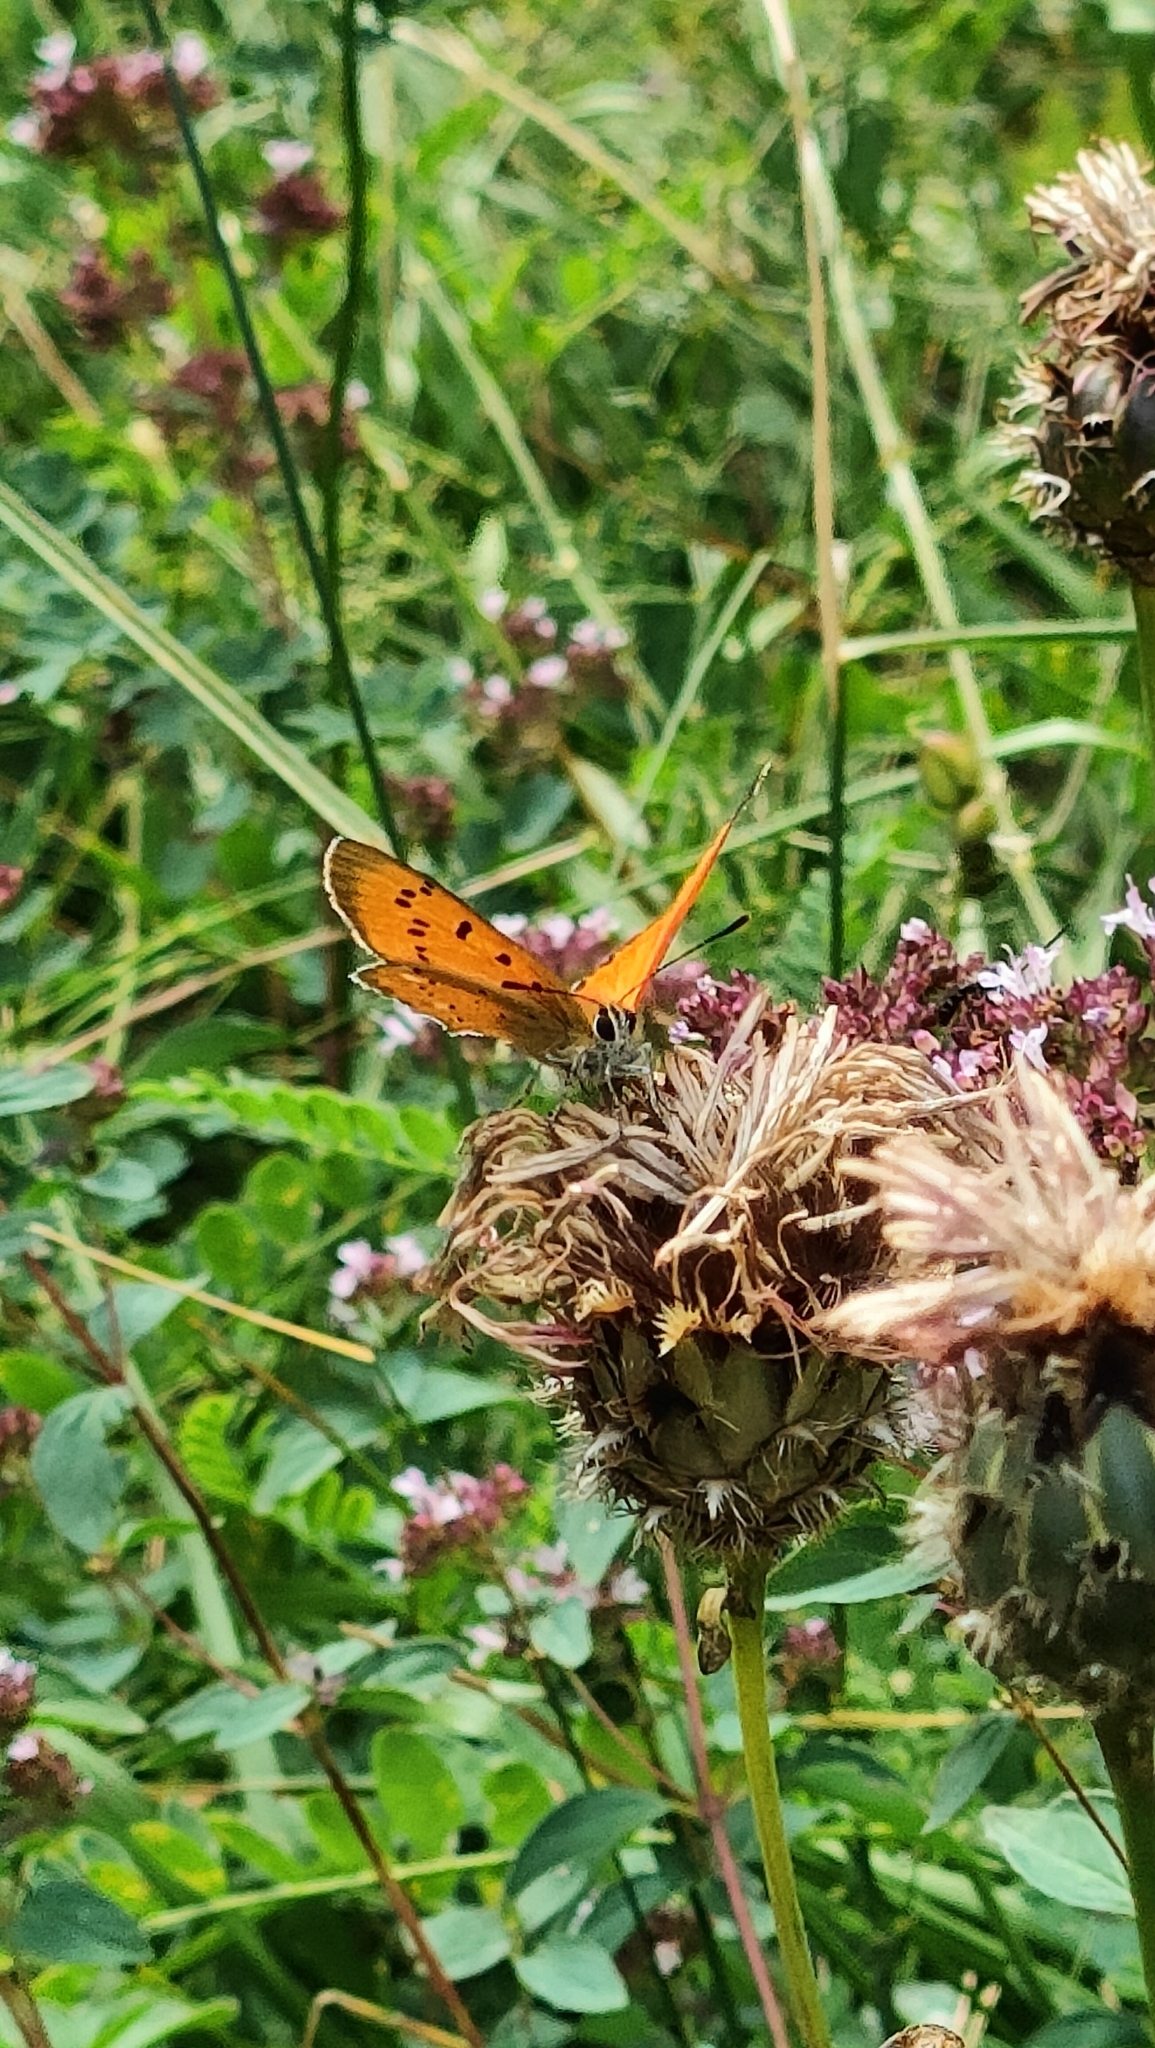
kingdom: Animalia
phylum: Arthropoda
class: Insecta
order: Lepidoptera
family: Lycaenidae
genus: Lycaena
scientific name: Lycaena virgaureae
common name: Scarce copper
